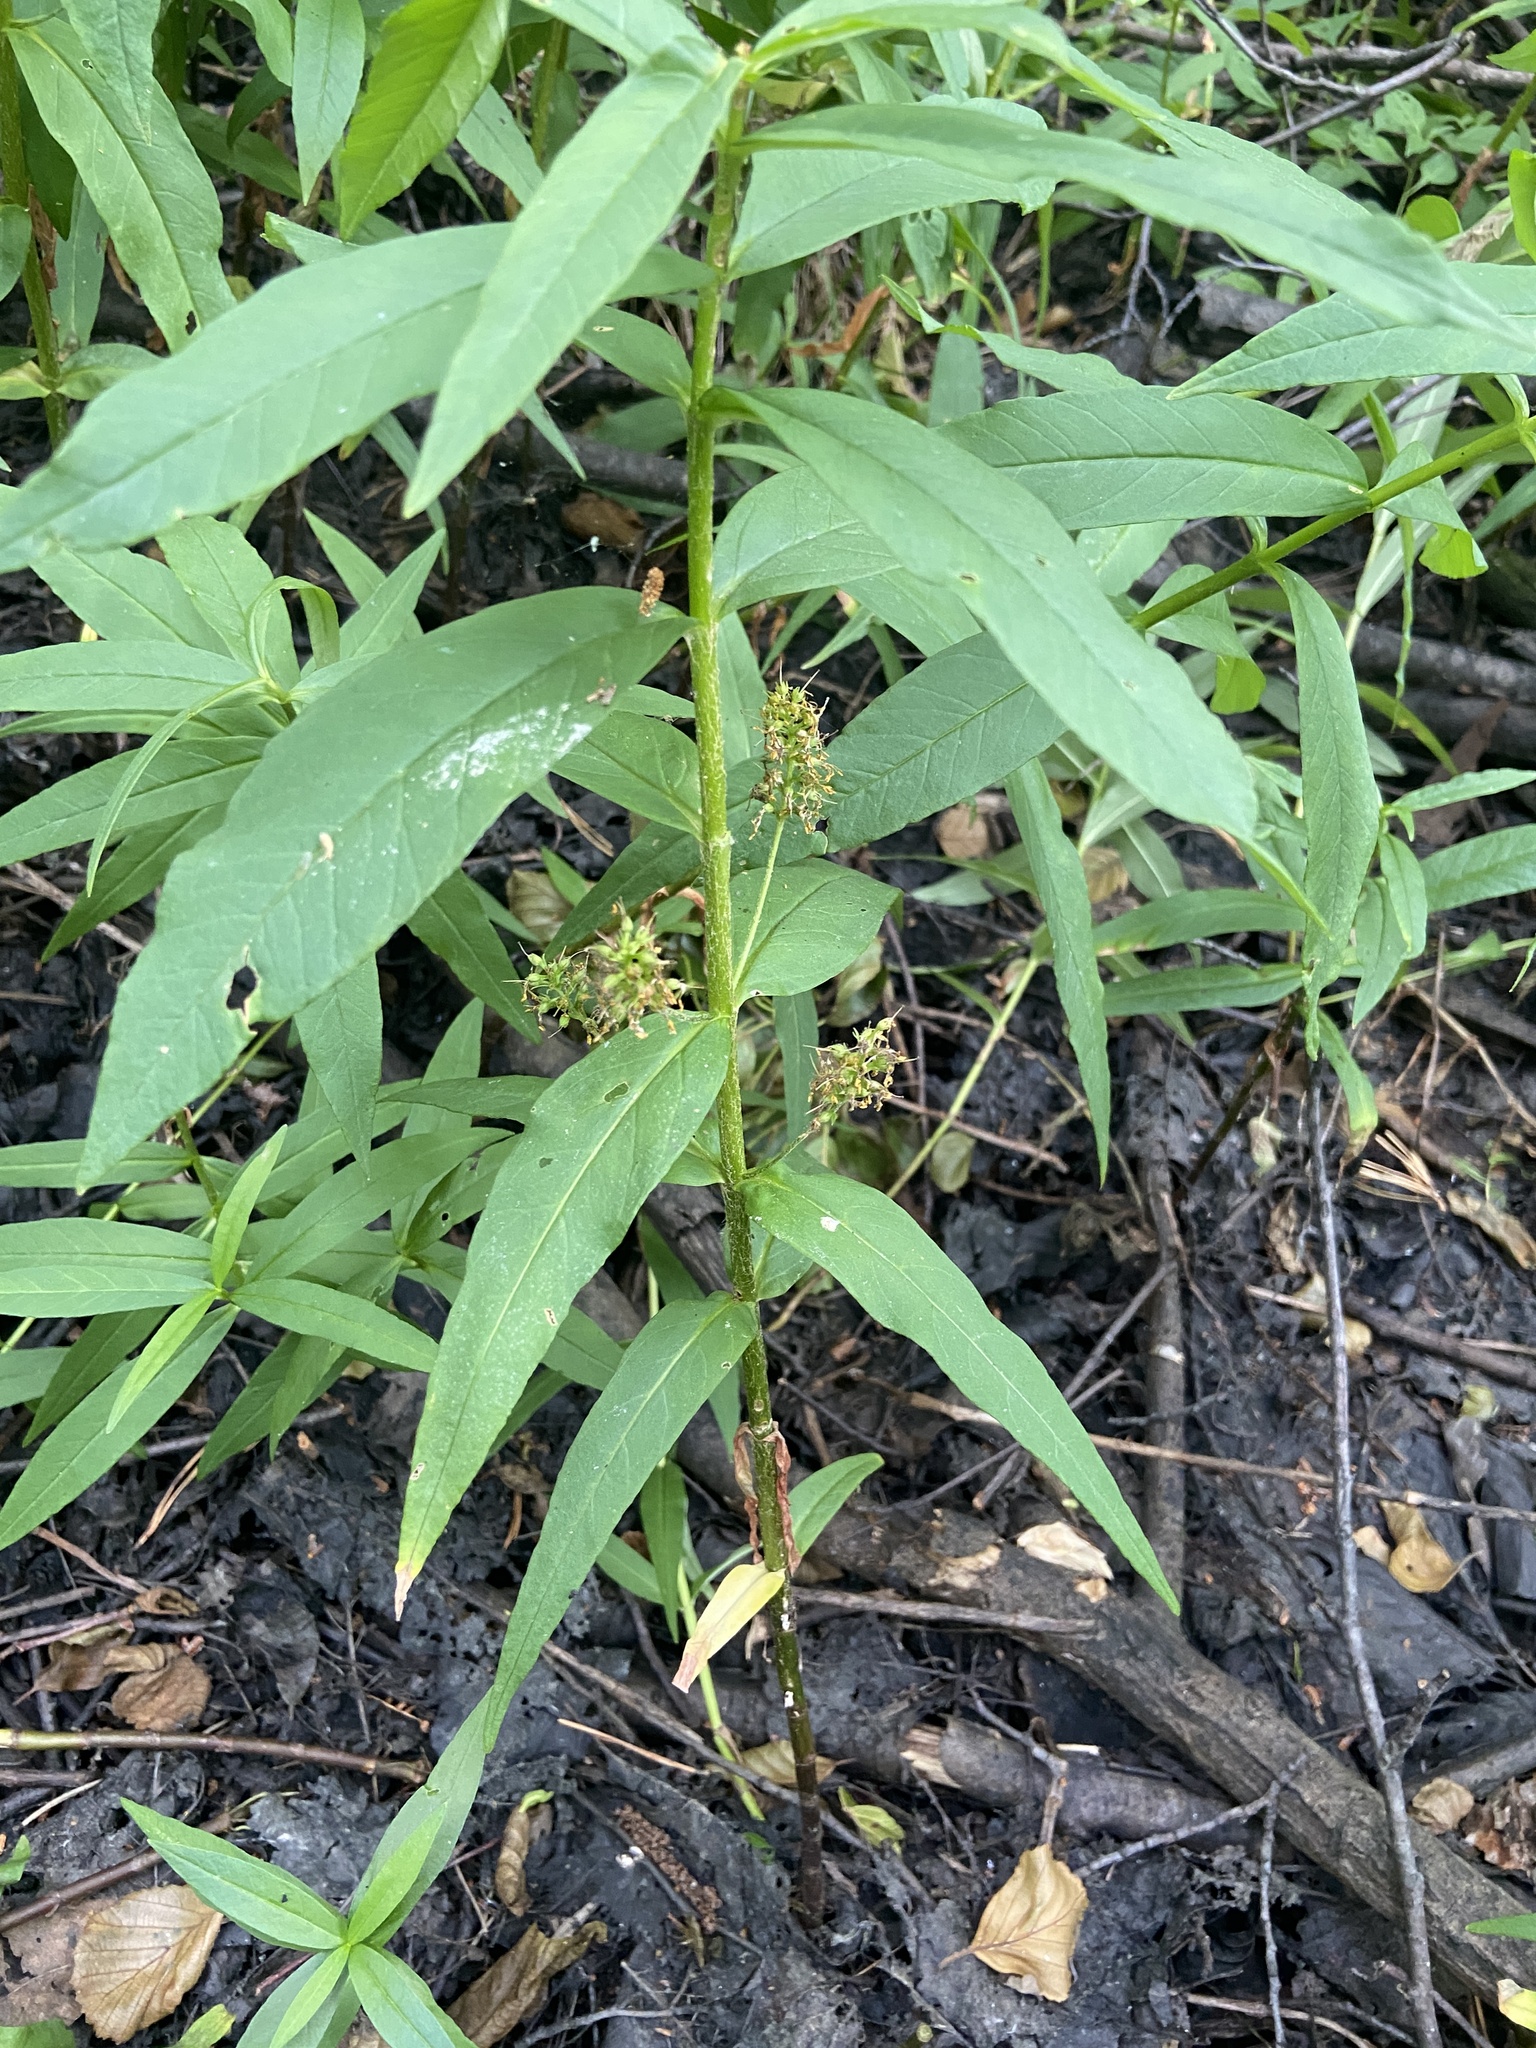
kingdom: Plantae
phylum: Tracheophyta
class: Magnoliopsida
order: Ericales
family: Primulaceae
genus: Lysimachia
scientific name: Lysimachia thyrsiflora
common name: Tufted loosestrife
